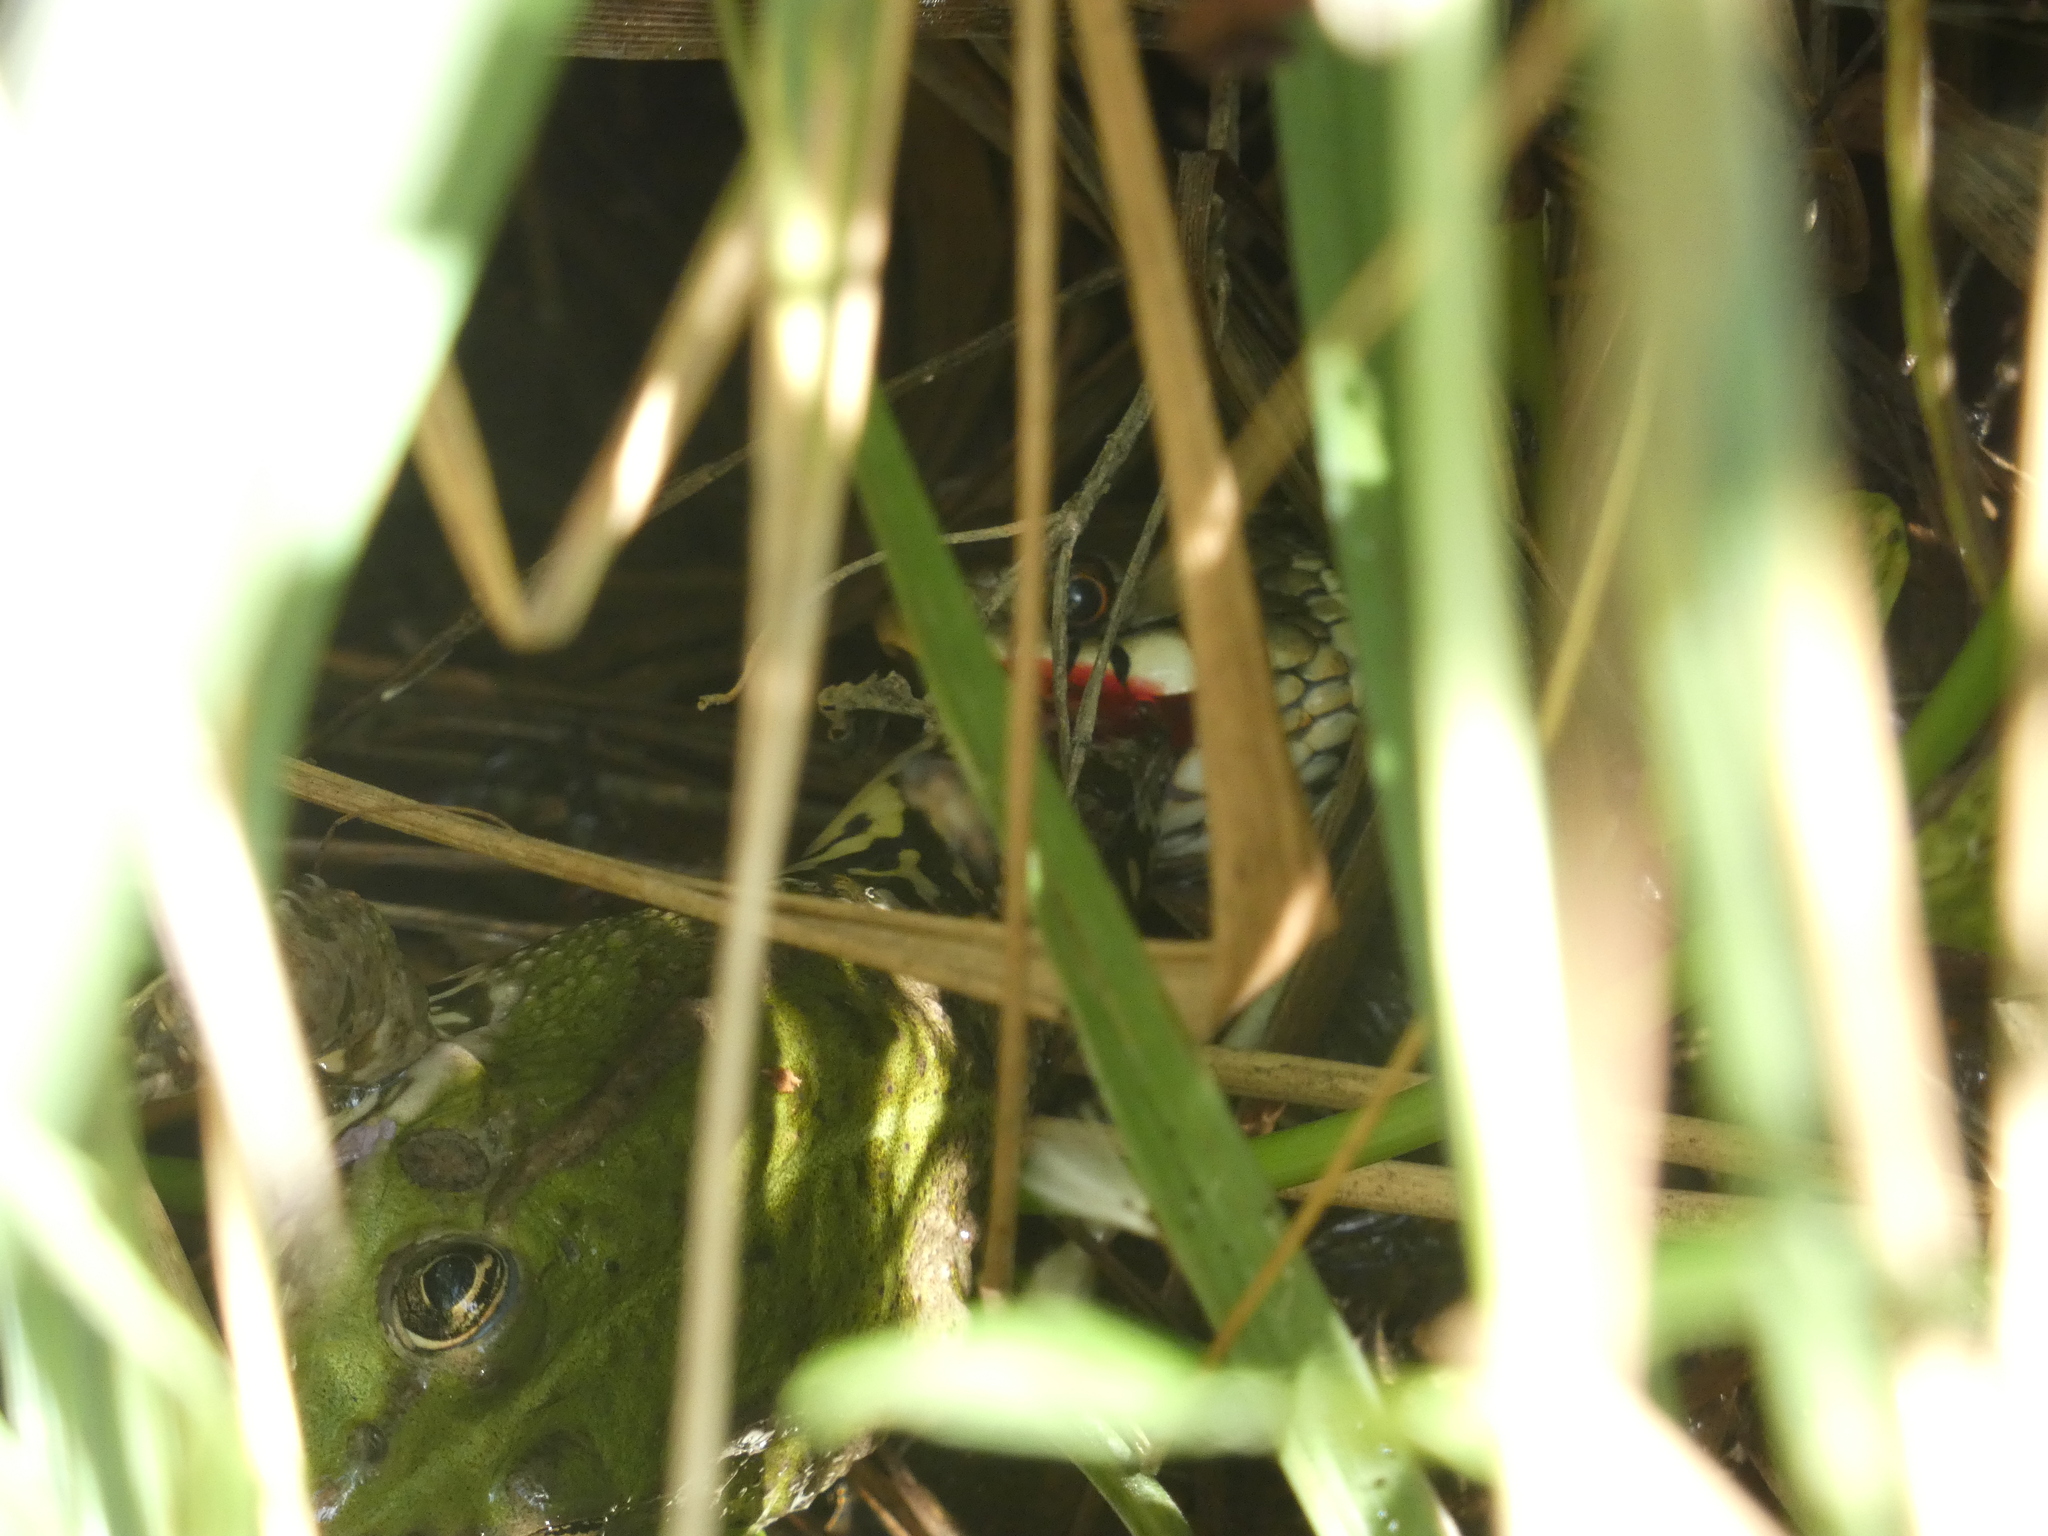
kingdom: Animalia
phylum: Chordata
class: Squamata
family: Colubridae
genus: Natrix
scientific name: Natrix helvetica
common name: Banded grass snake
